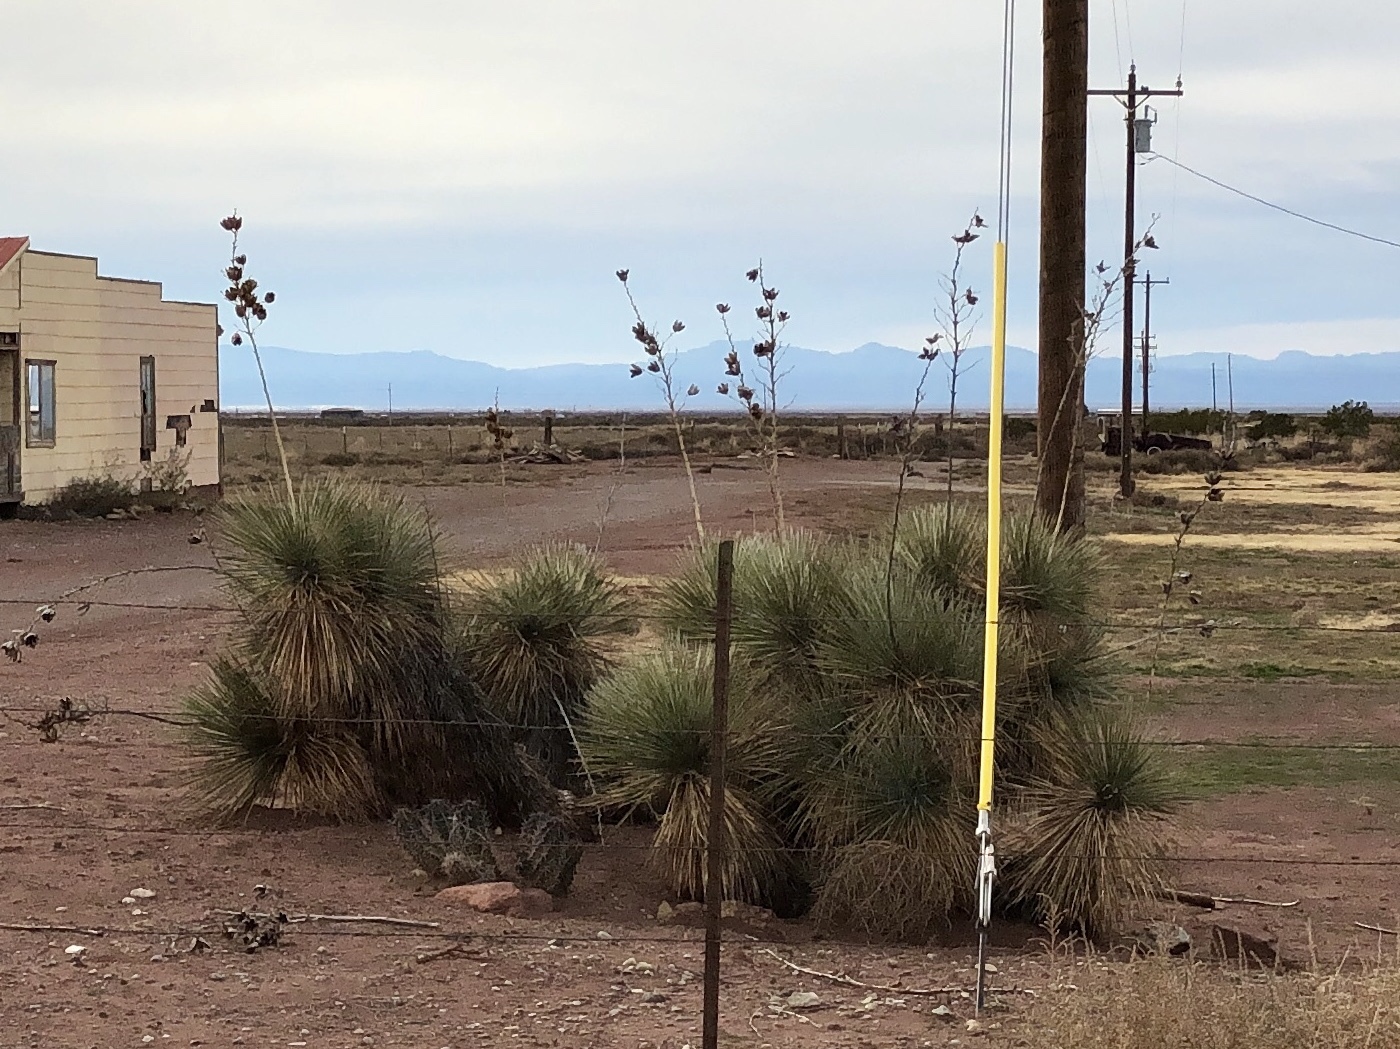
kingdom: Plantae
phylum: Tracheophyta
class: Liliopsida
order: Asparagales
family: Asparagaceae
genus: Yucca
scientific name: Yucca elata
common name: Palmella
